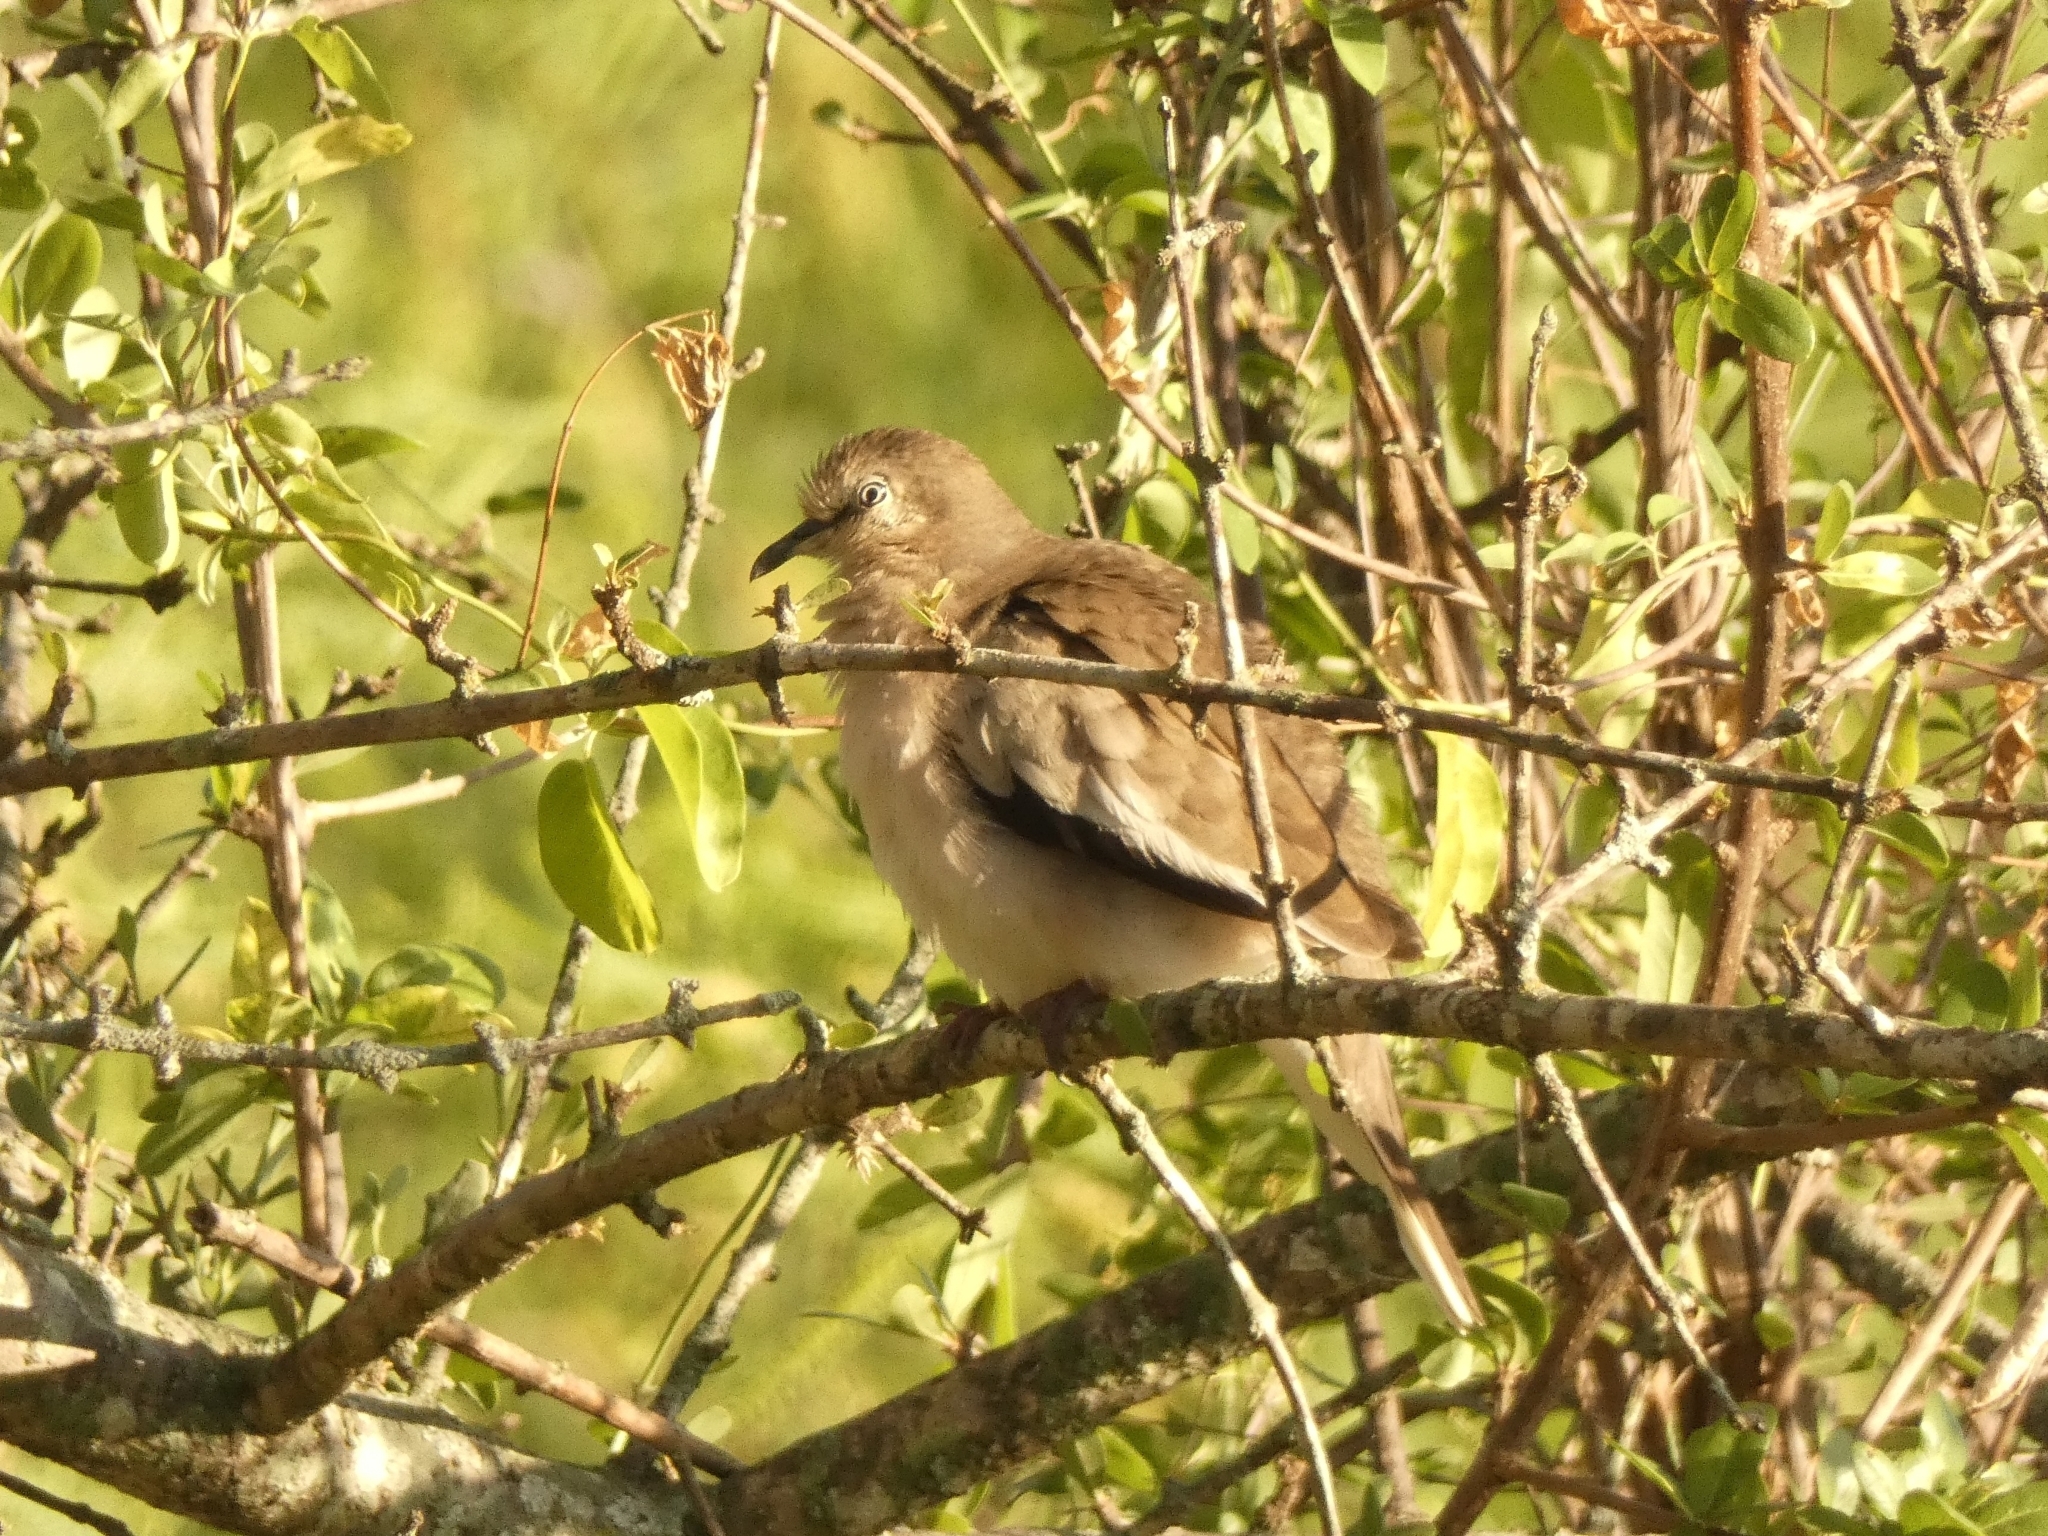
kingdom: Animalia
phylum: Chordata
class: Aves
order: Columbiformes
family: Columbidae
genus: Columbina
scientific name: Columbina picui
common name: Picui ground dove
